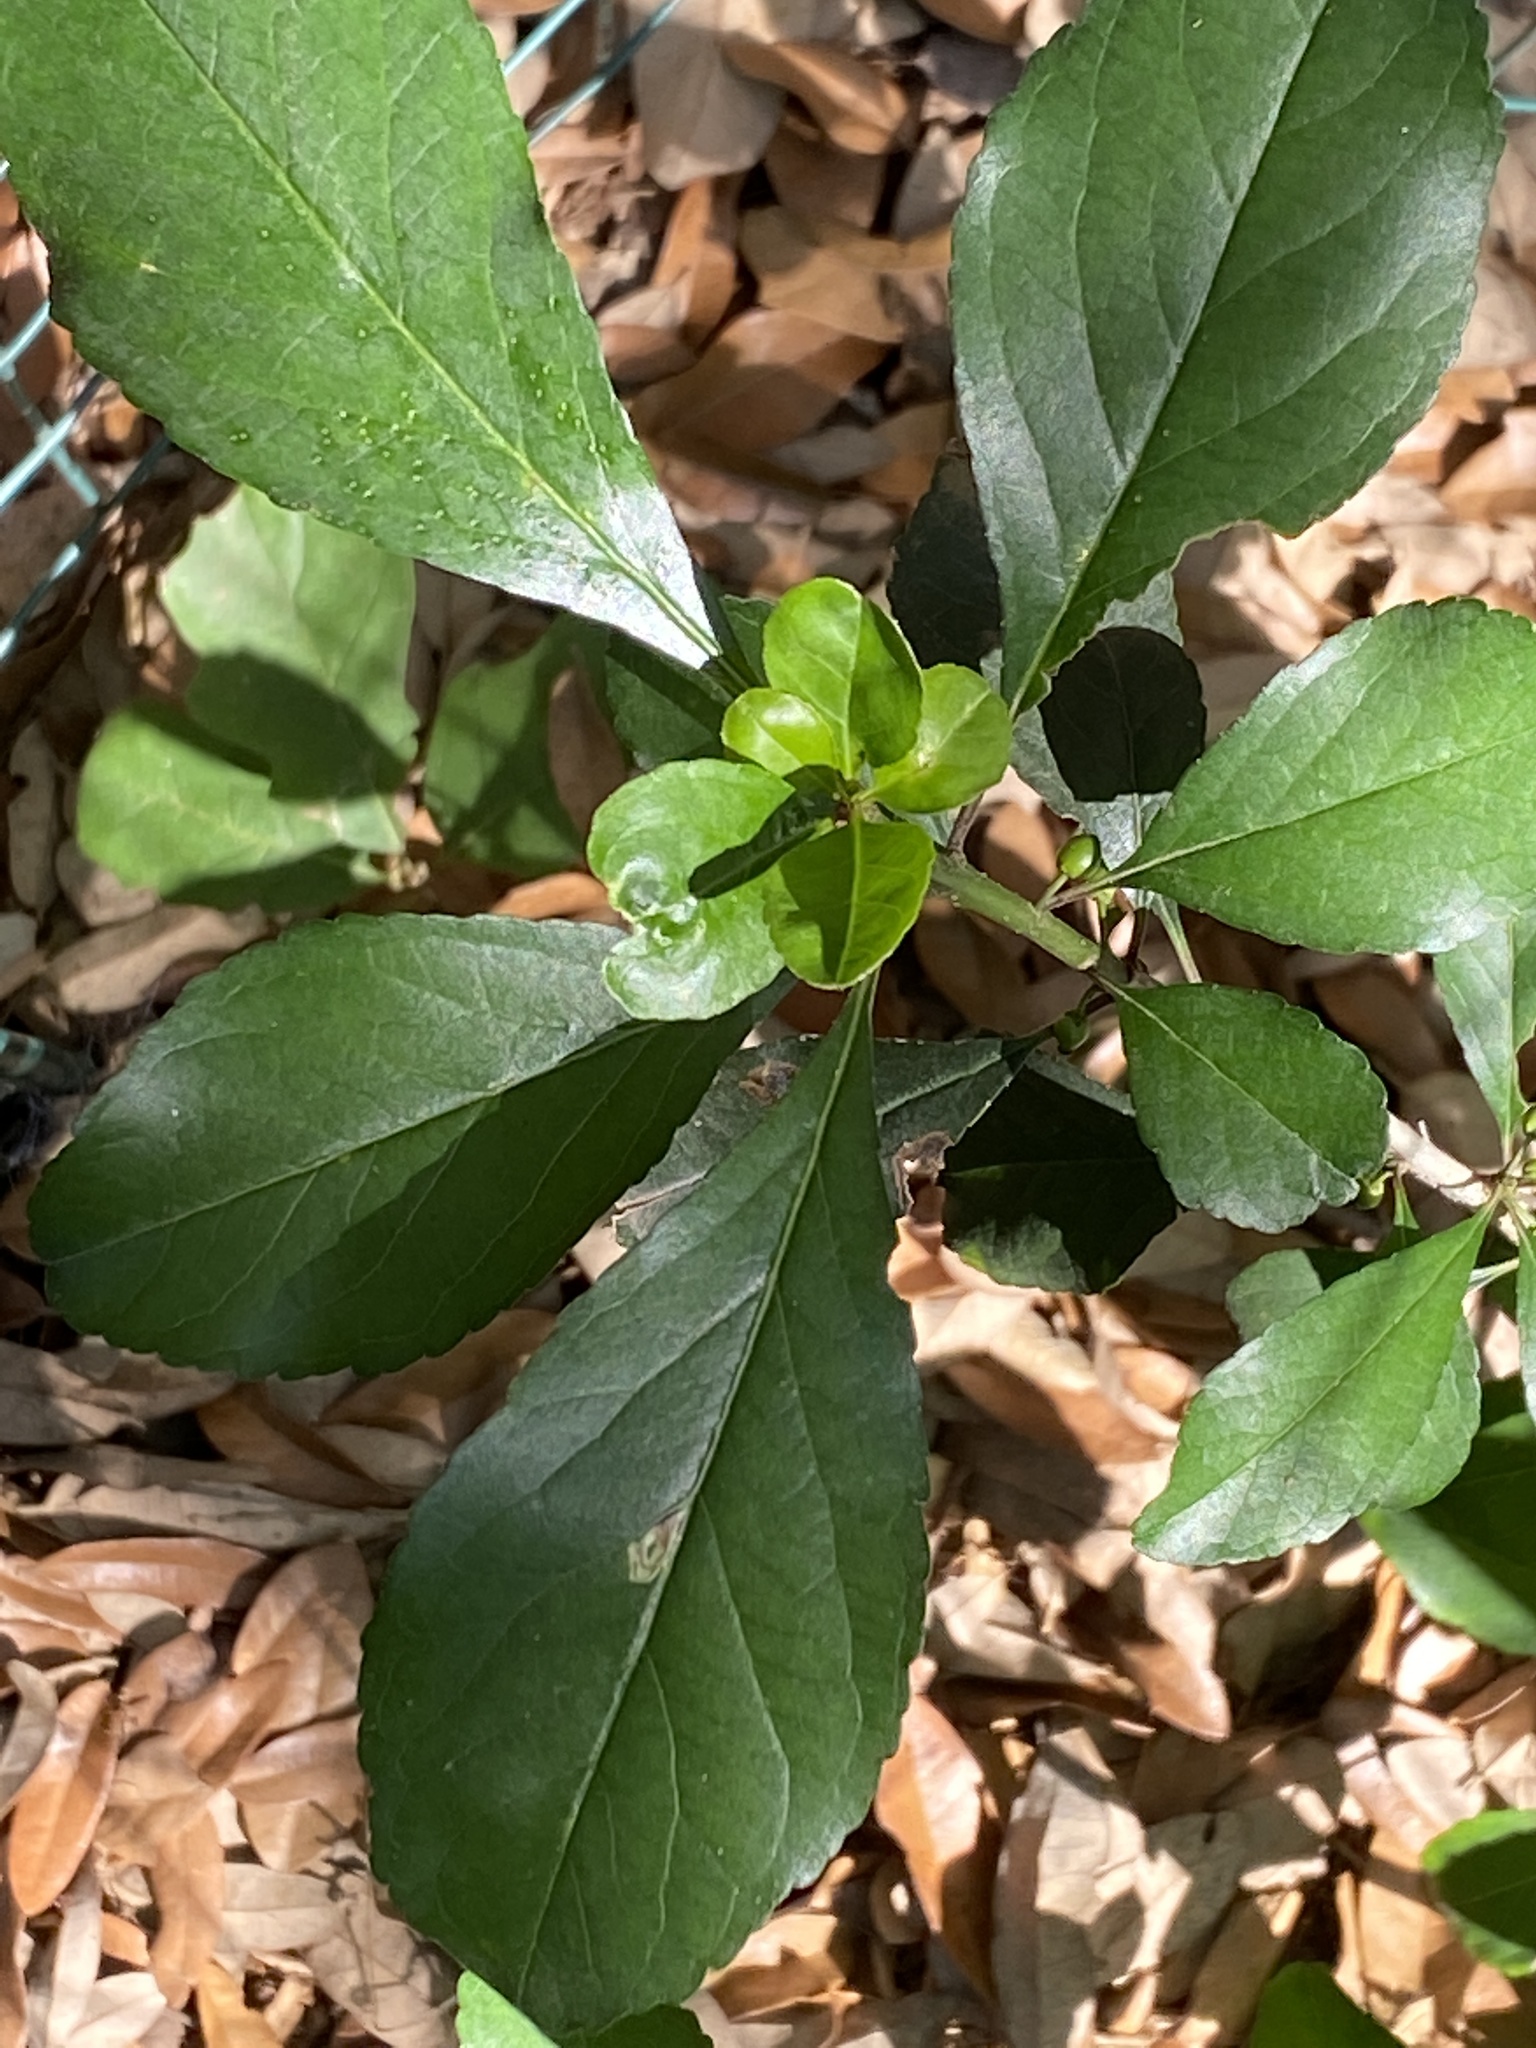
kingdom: Plantae
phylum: Tracheophyta
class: Magnoliopsida
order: Aquifoliales
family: Aquifoliaceae
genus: Ilex
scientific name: Ilex decidua
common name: Possum-haw
